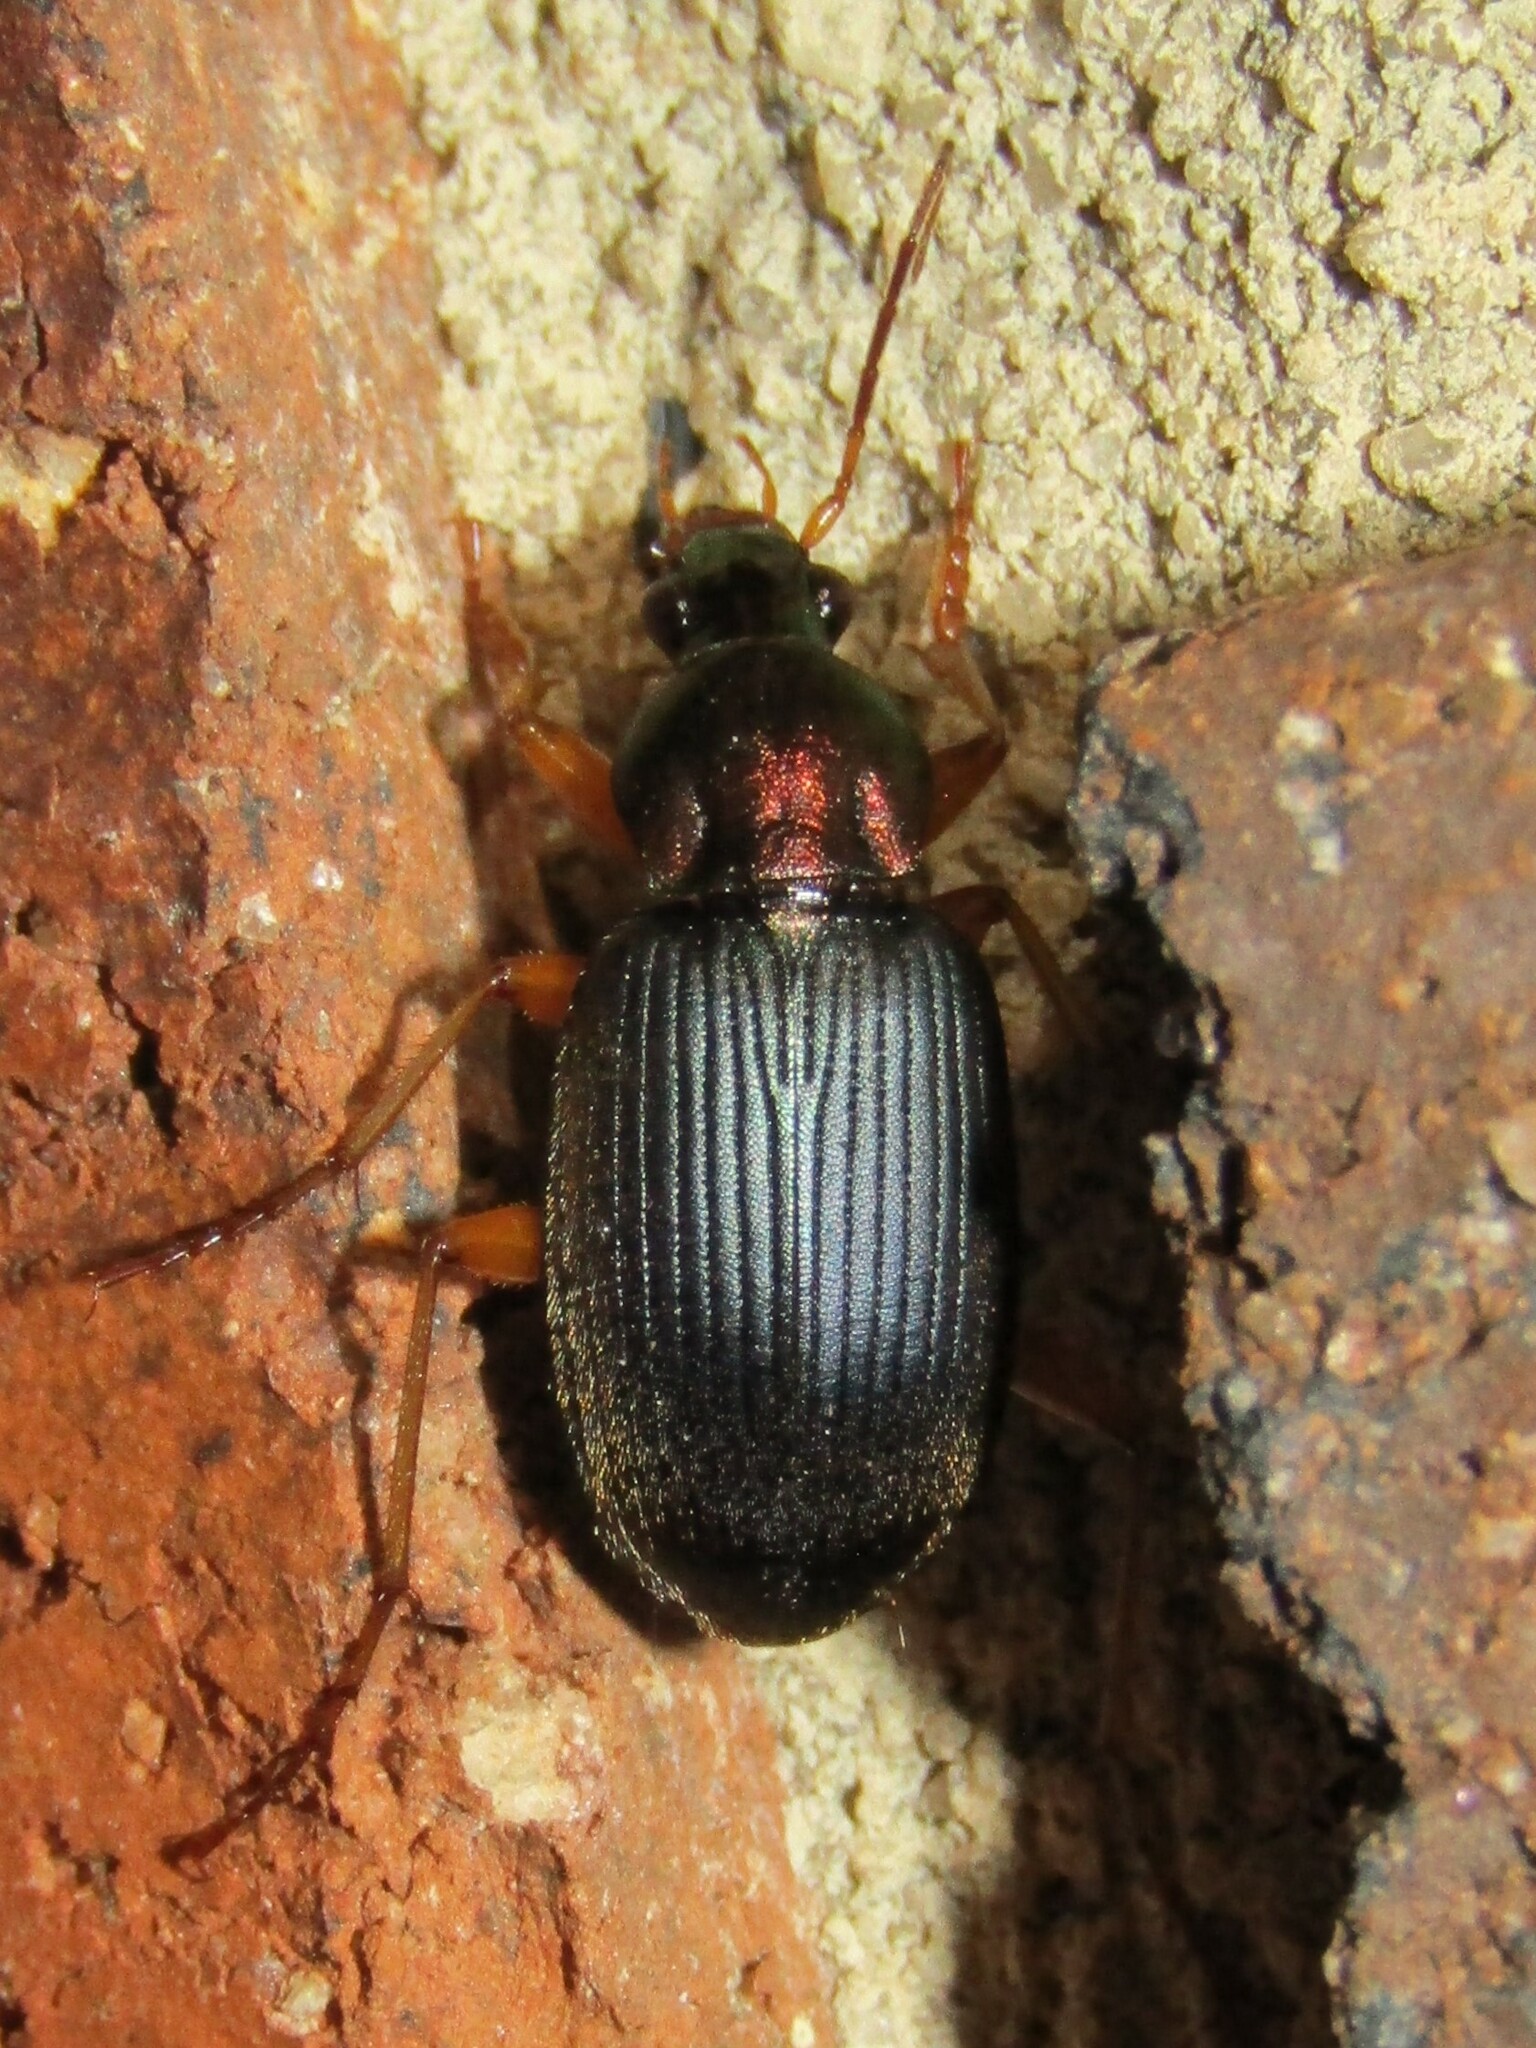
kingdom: Animalia
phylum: Arthropoda
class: Insecta
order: Coleoptera
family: Carabidae
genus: Chlaenius
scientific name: Chlaenius tricolor
